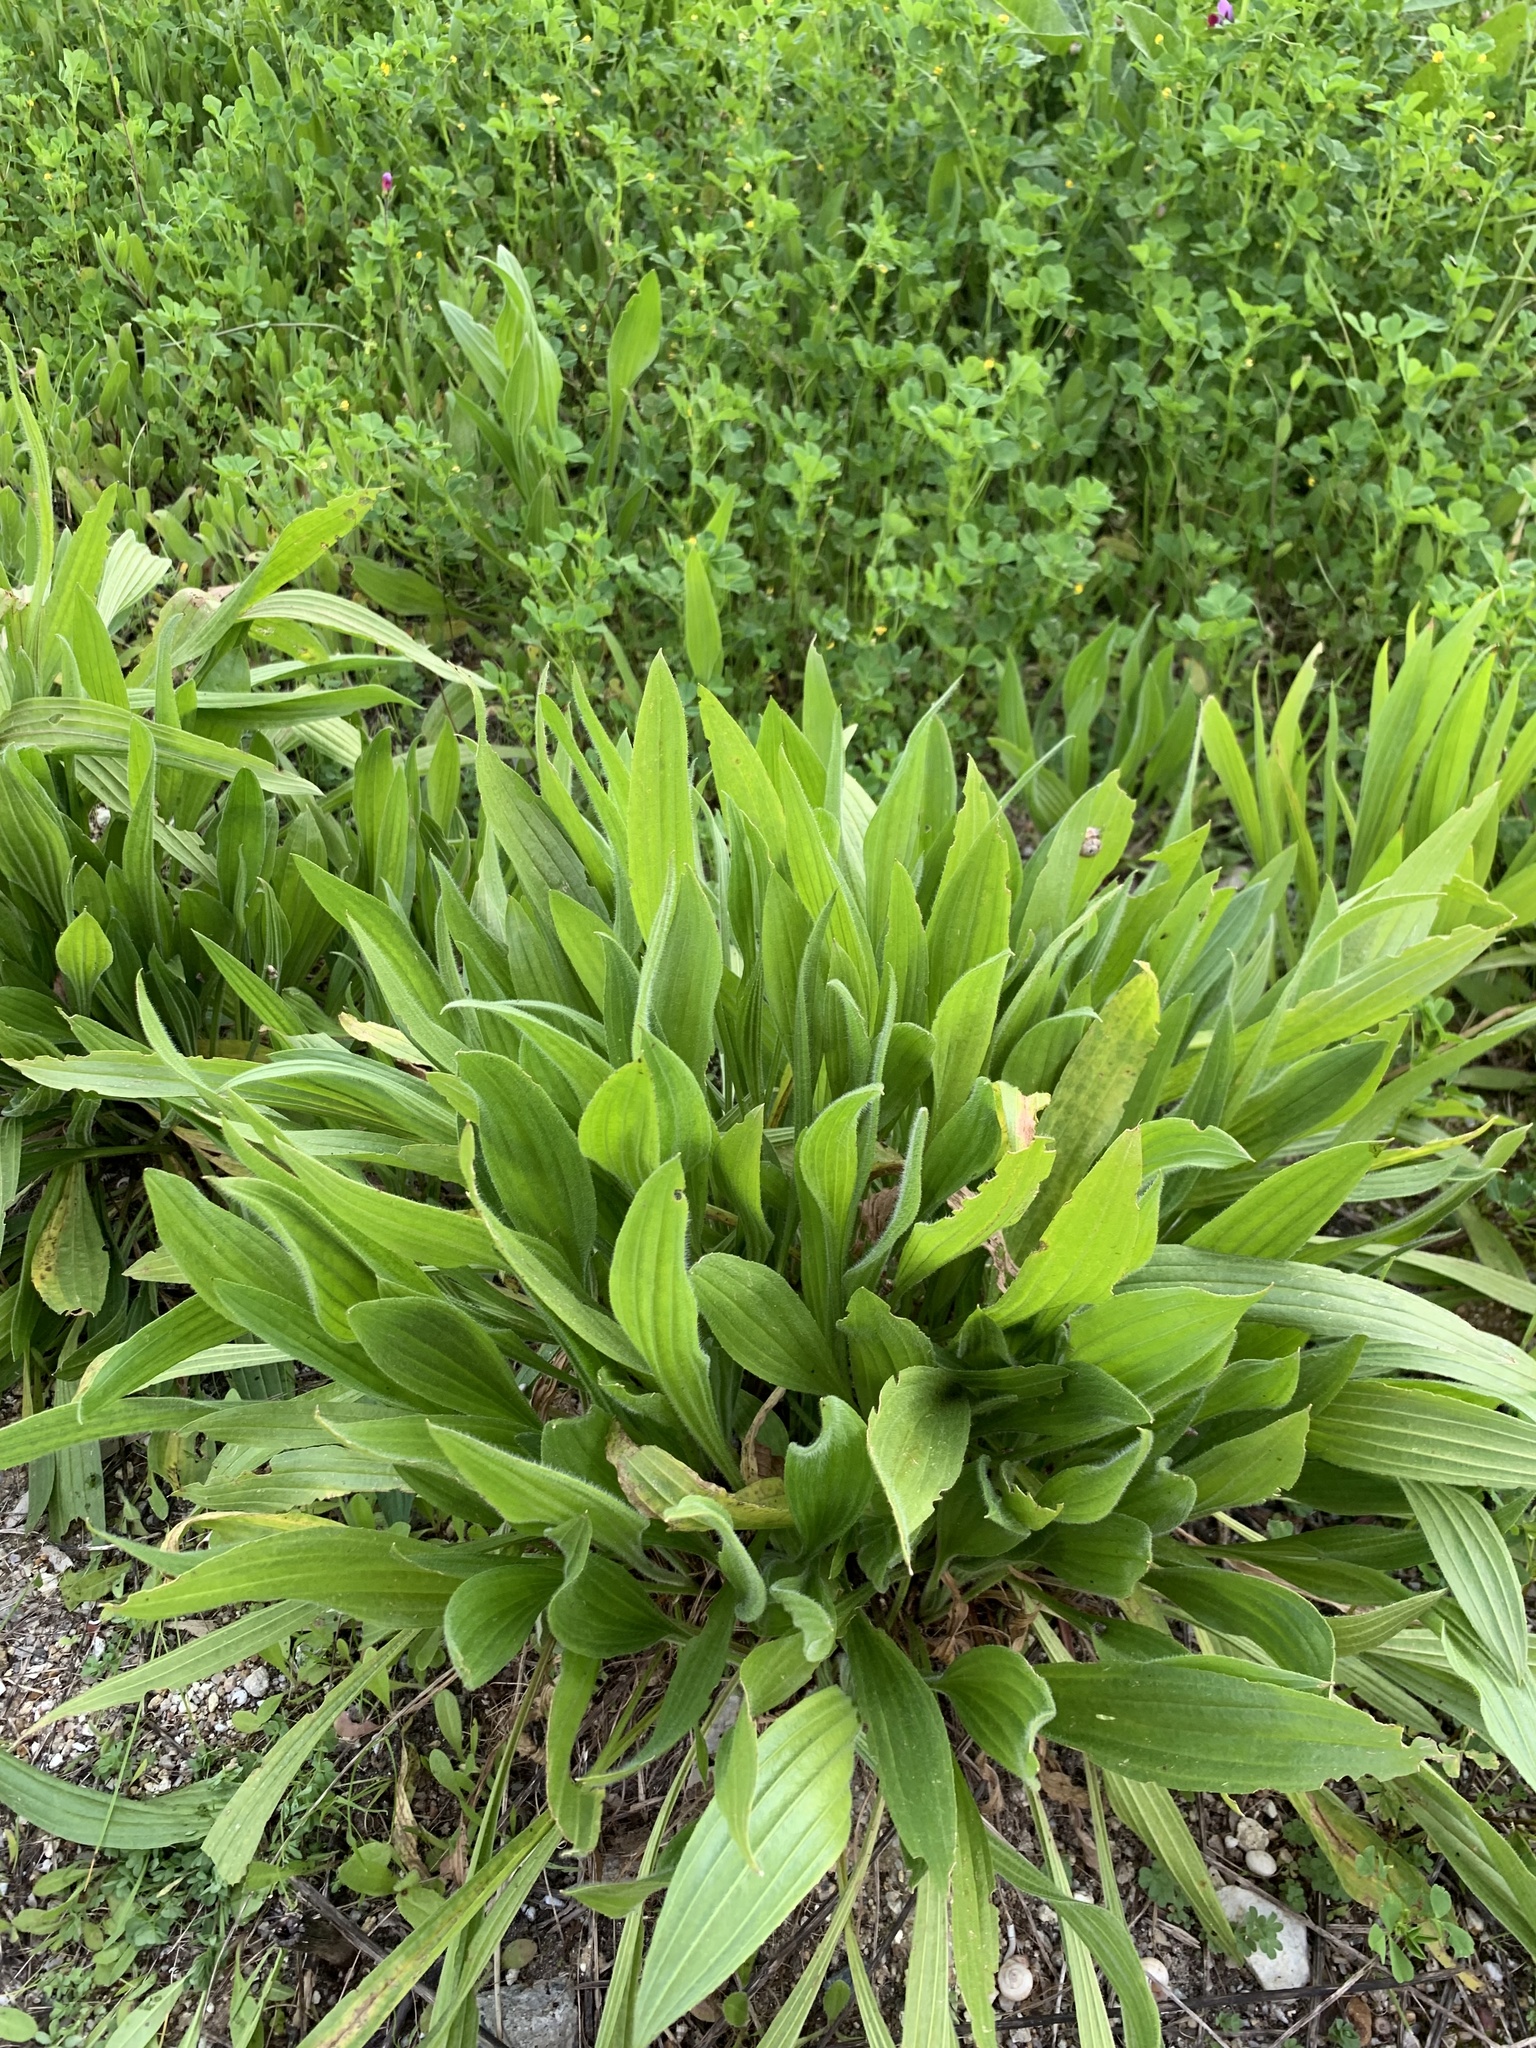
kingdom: Plantae
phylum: Tracheophyta
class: Magnoliopsida
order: Lamiales
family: Plantaginaceae
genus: Plantago
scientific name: Plantago lanceolata
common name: Ribwort plantain
